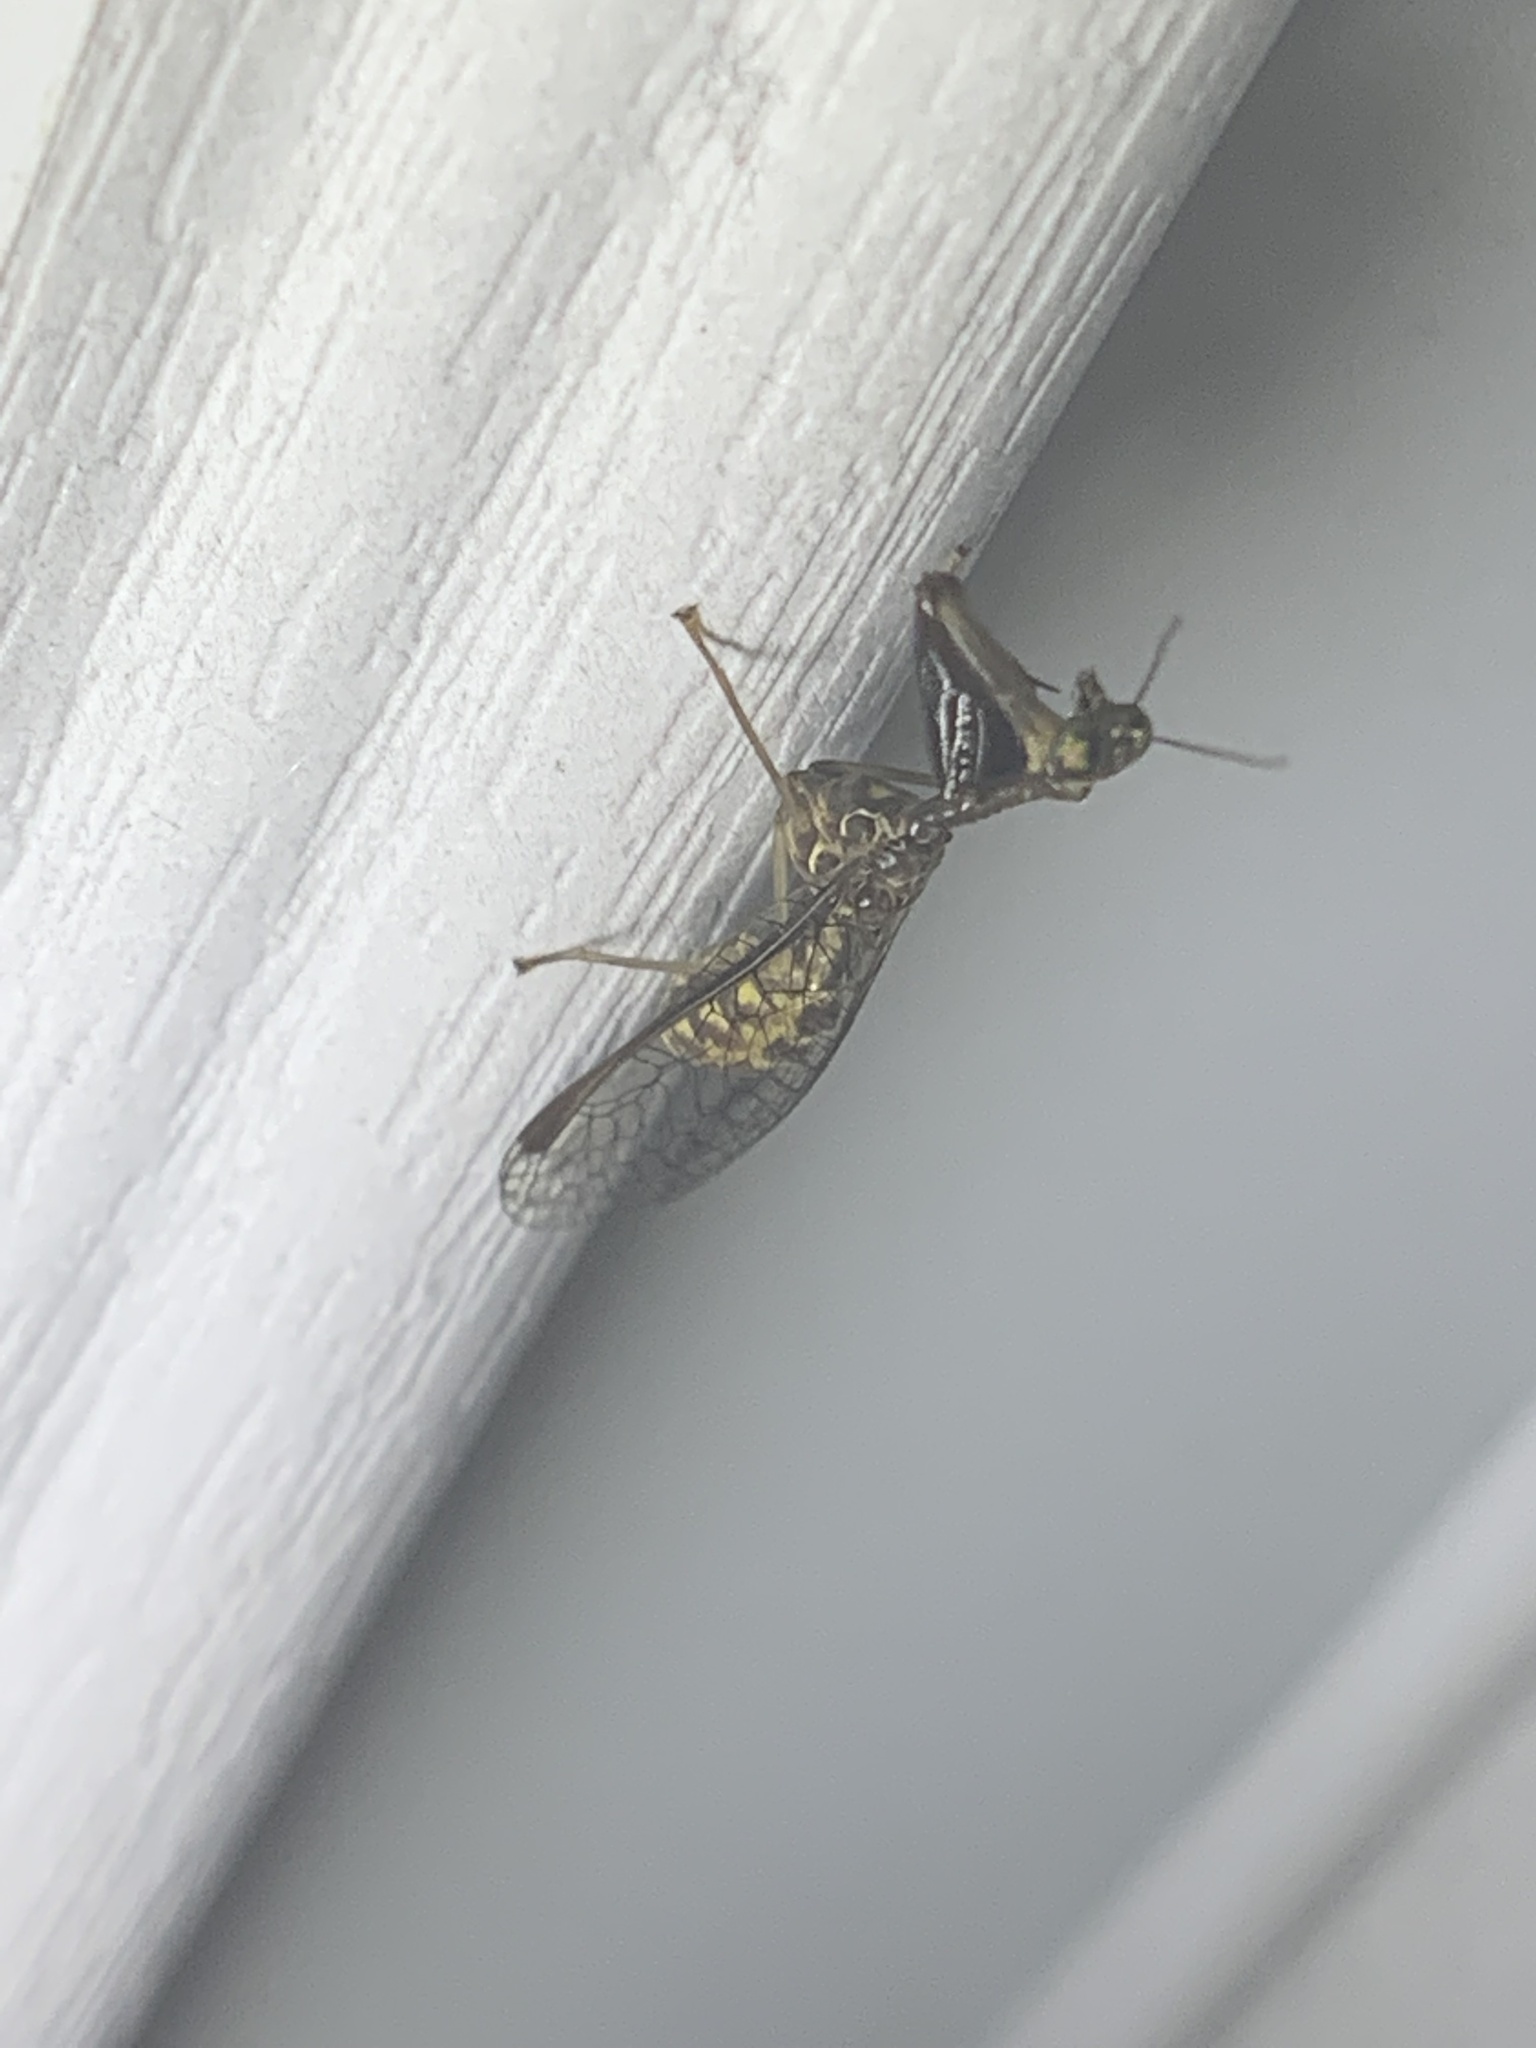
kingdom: Animalia
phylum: Arthropoda
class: Insecta
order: Neuroptera
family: Mantispidae
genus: Dicromantispa
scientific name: Dicromantispa sayi
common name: Say's mantidfly
